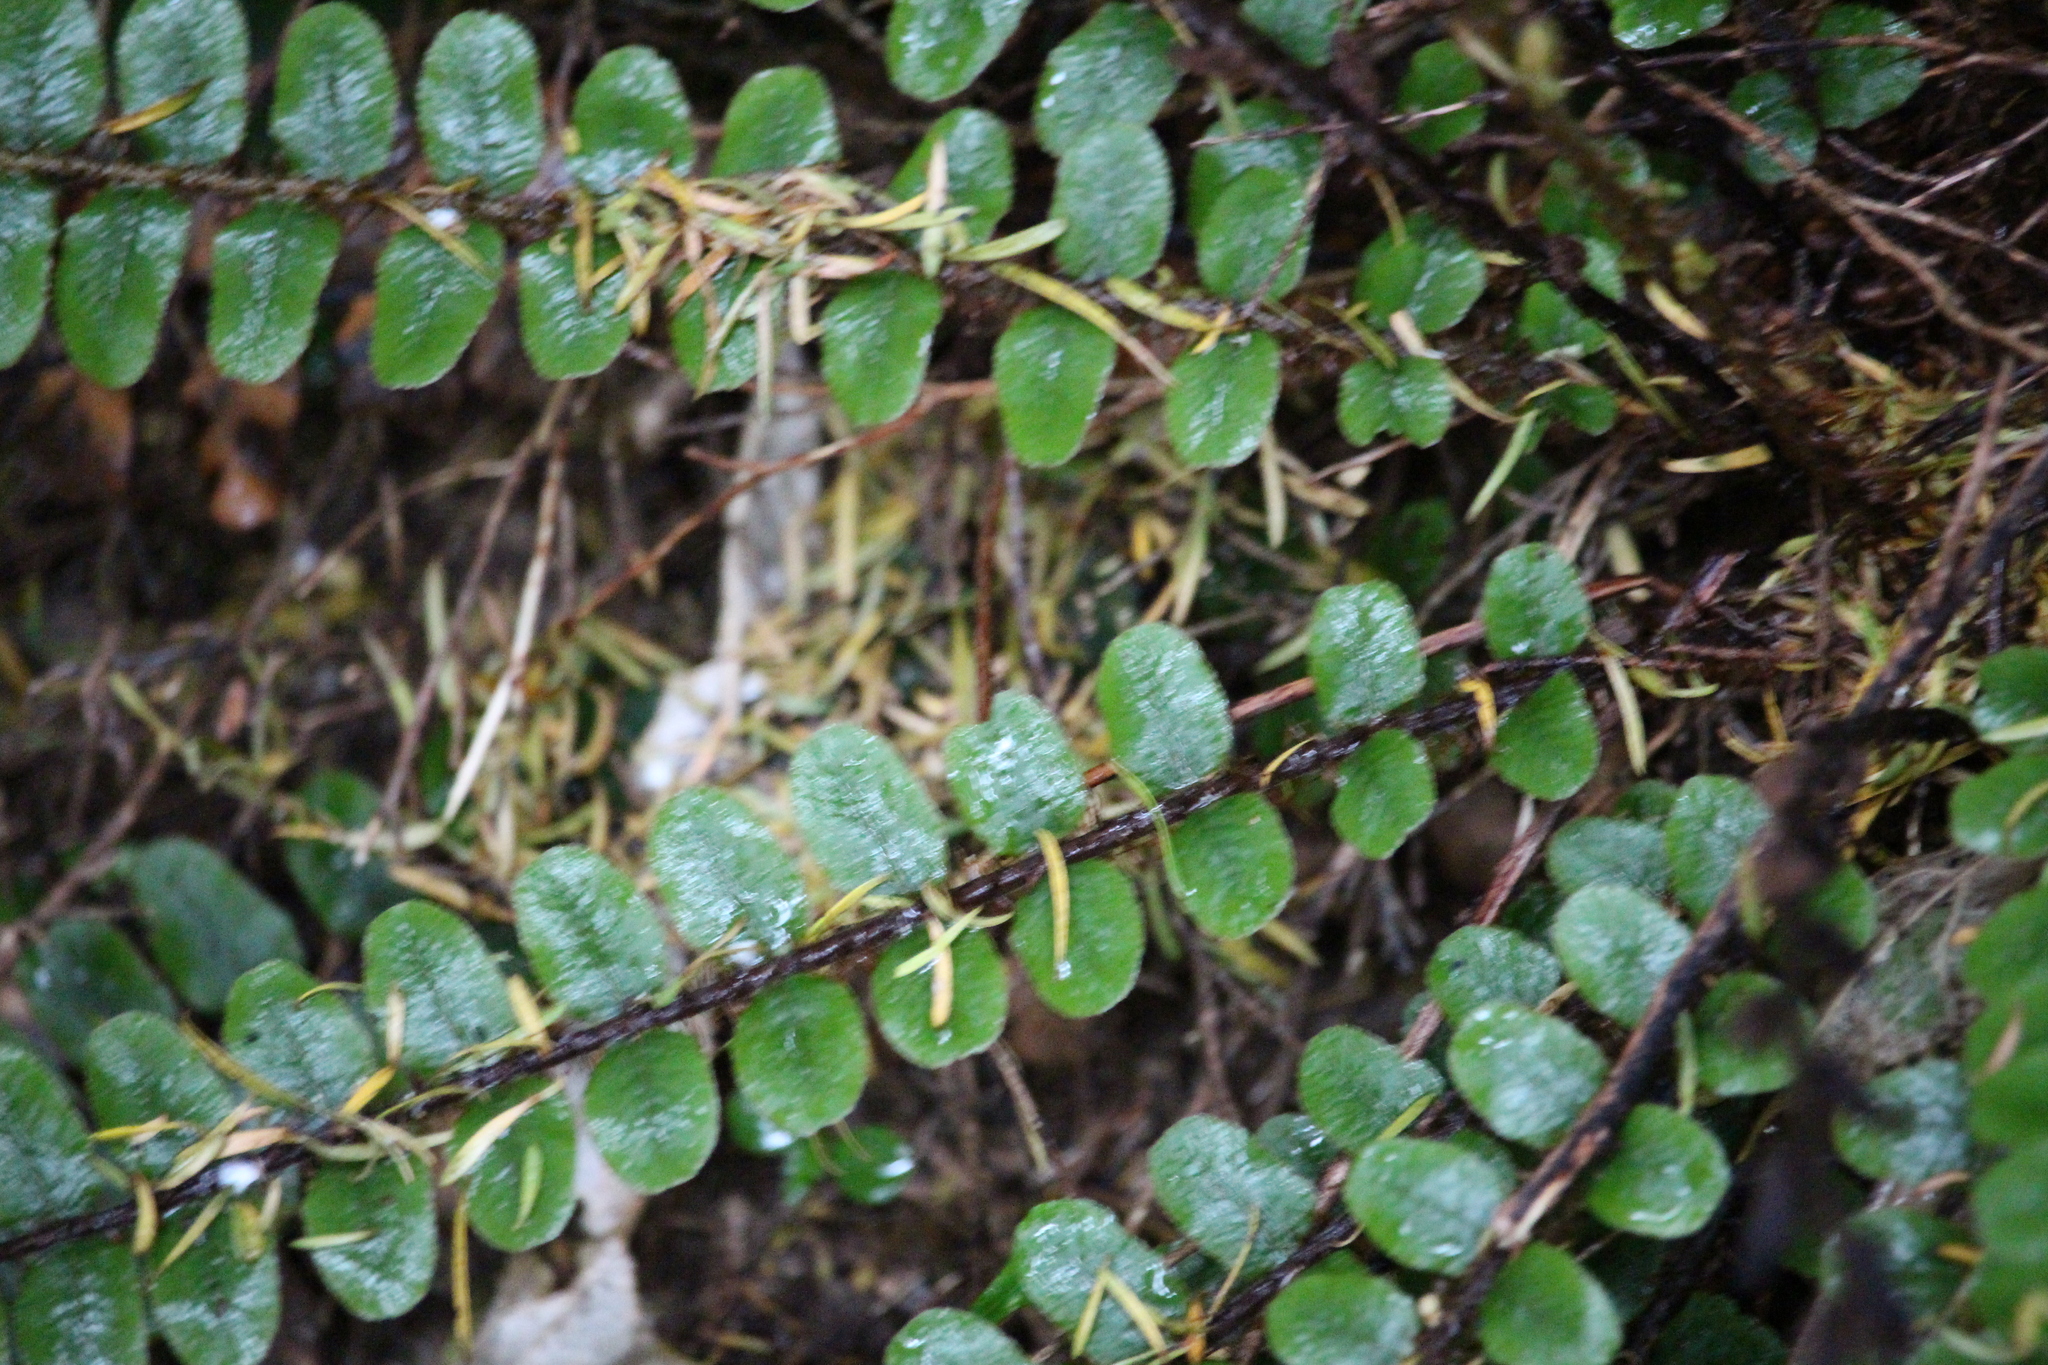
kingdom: Plantae
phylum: Tracheophyta
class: Polypodiopsida
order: Polypodiales
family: Blechnaceae
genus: Cranfillia
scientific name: Cranfillia fluviatilis
